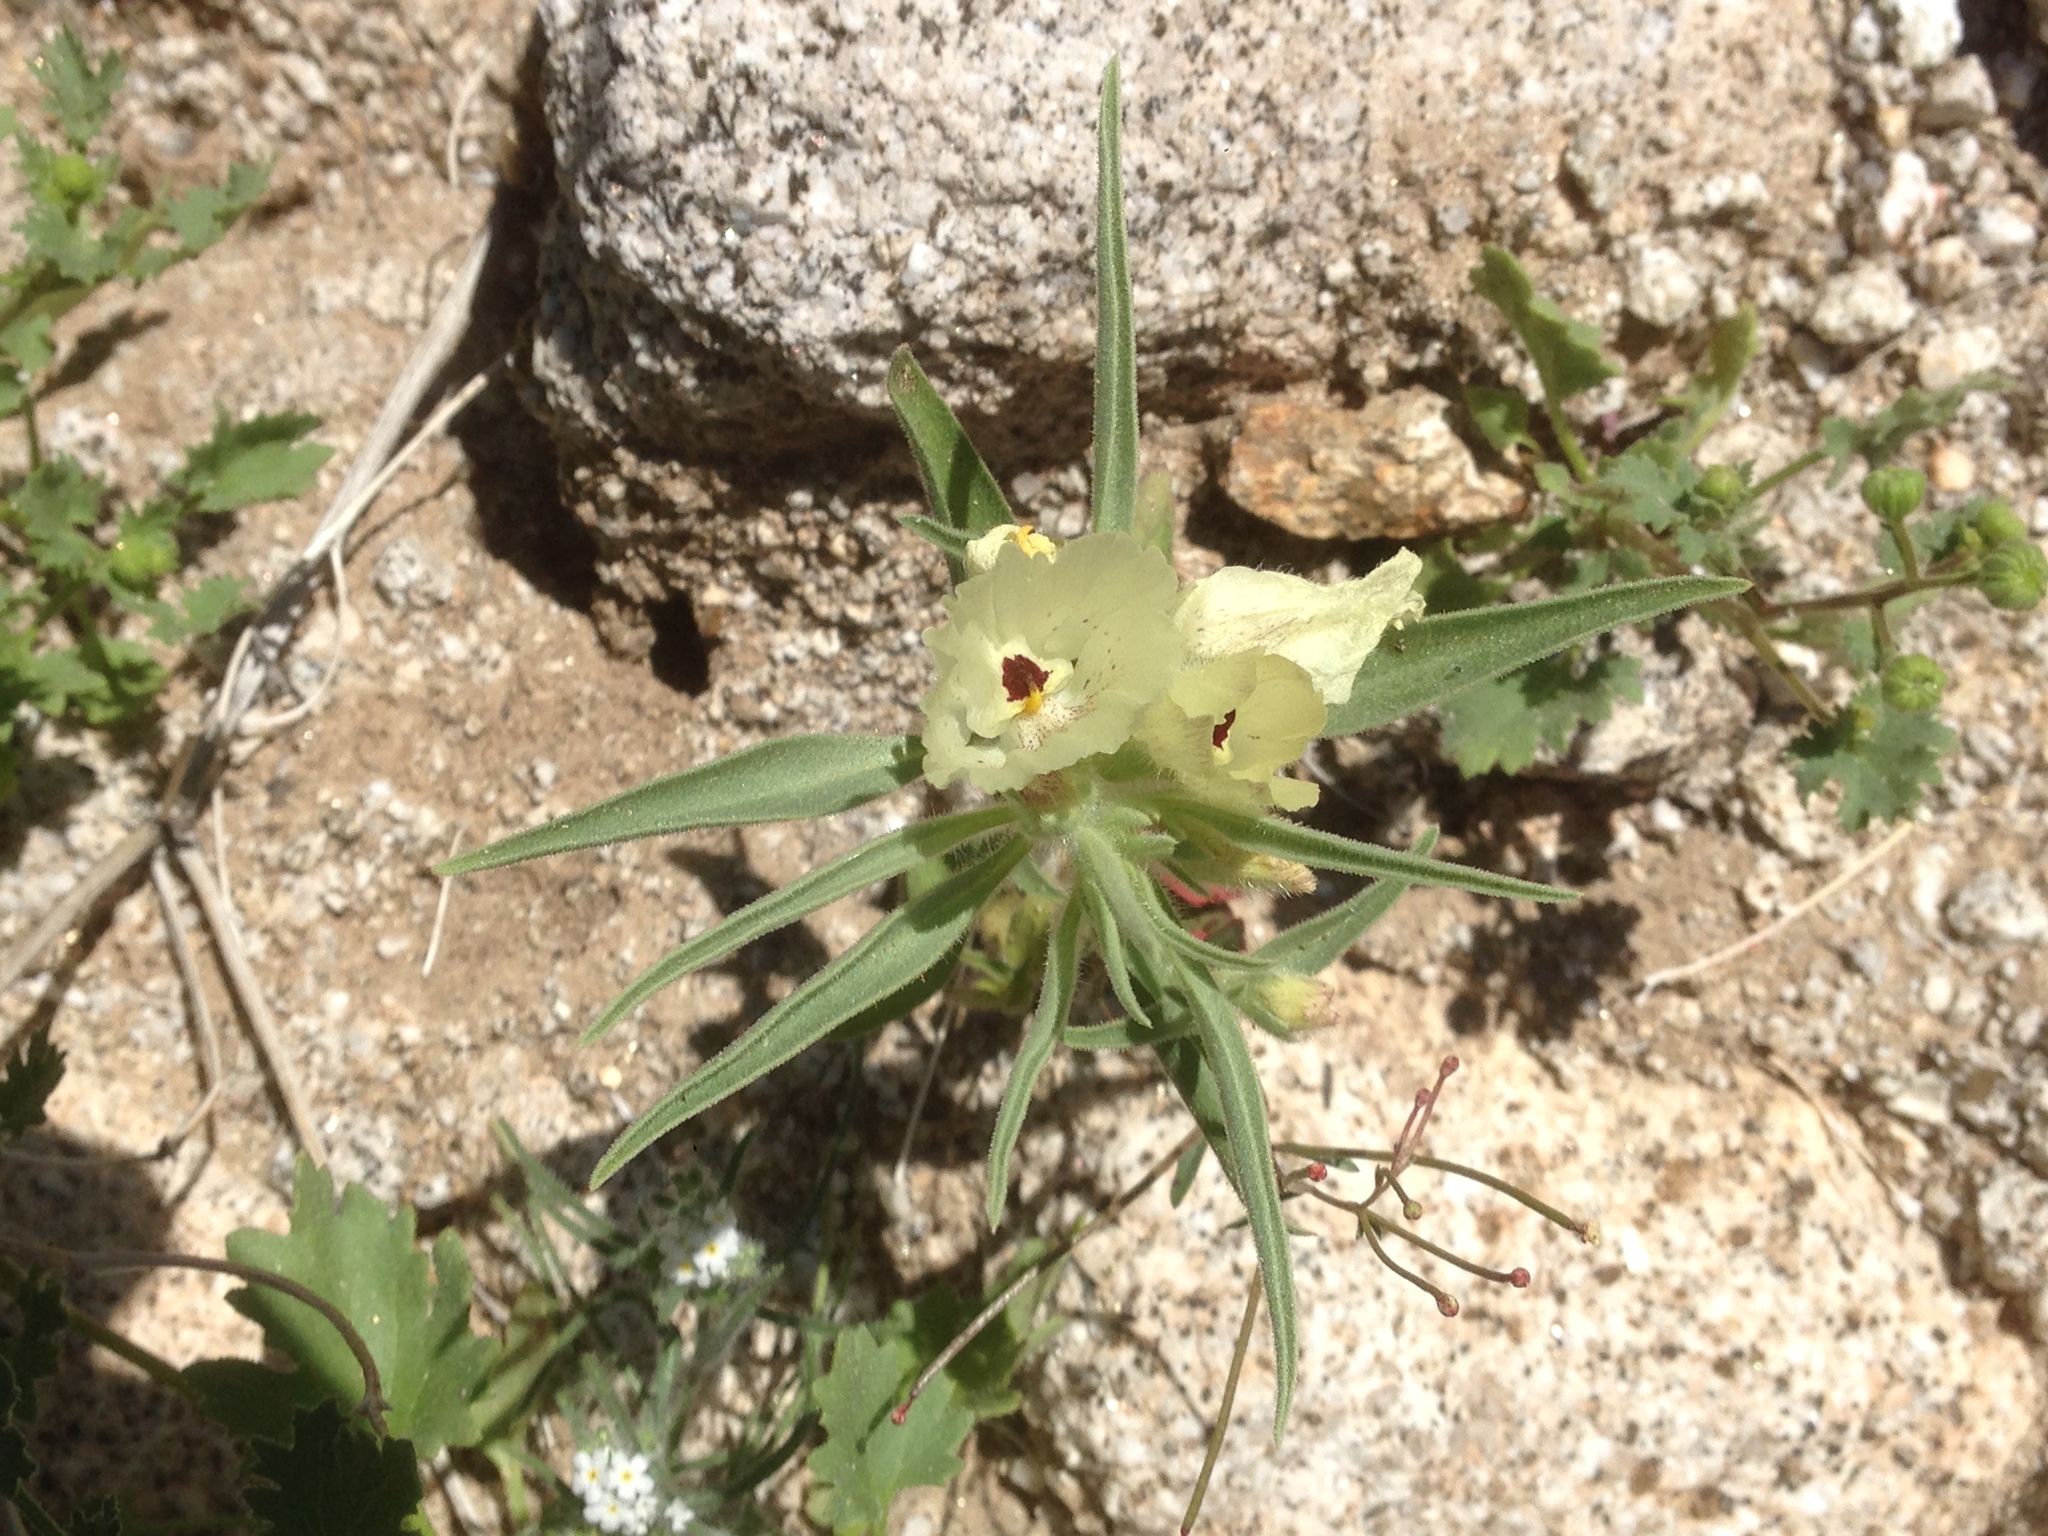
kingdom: Plantae
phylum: Tracheophyta
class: Magnoliopsida
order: Lamiales
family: Plantaginaceae
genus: Mohavea
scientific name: Mohavea confertiflora
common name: Ghost flower
